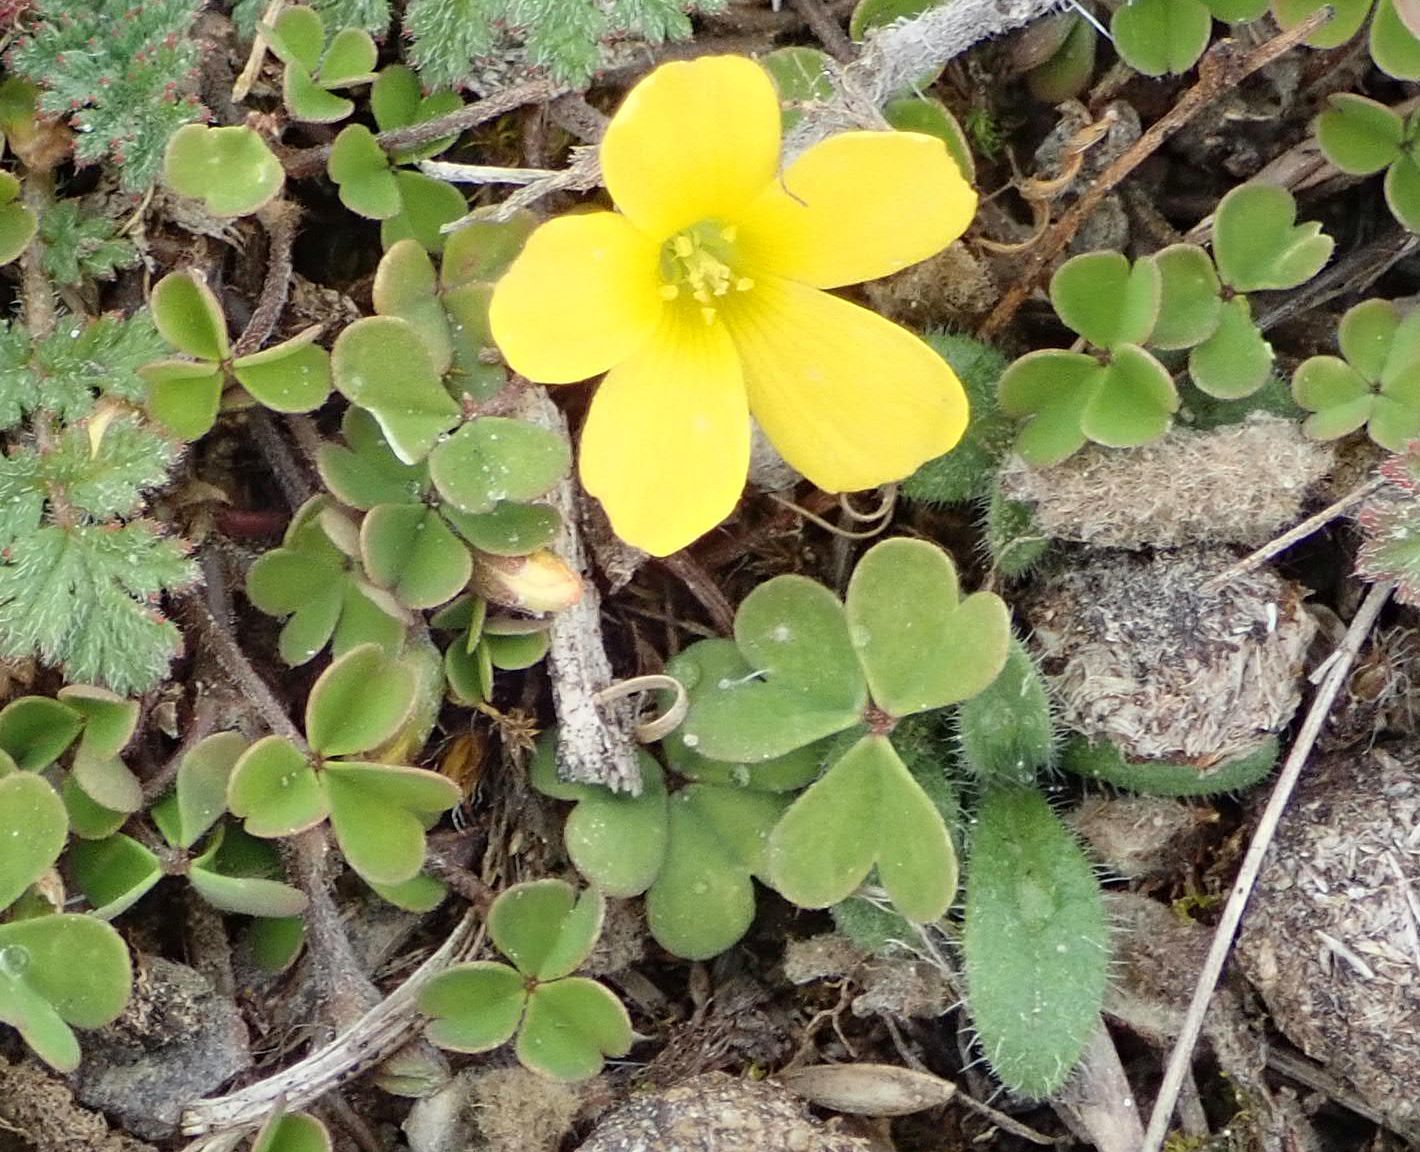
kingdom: Plantae
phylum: Tracheophyta
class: Magnoliopsida
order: Oxalidales
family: Oxalidaceae
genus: Oxalis
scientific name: Oxalis exilis
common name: Least yellow-sorrel
